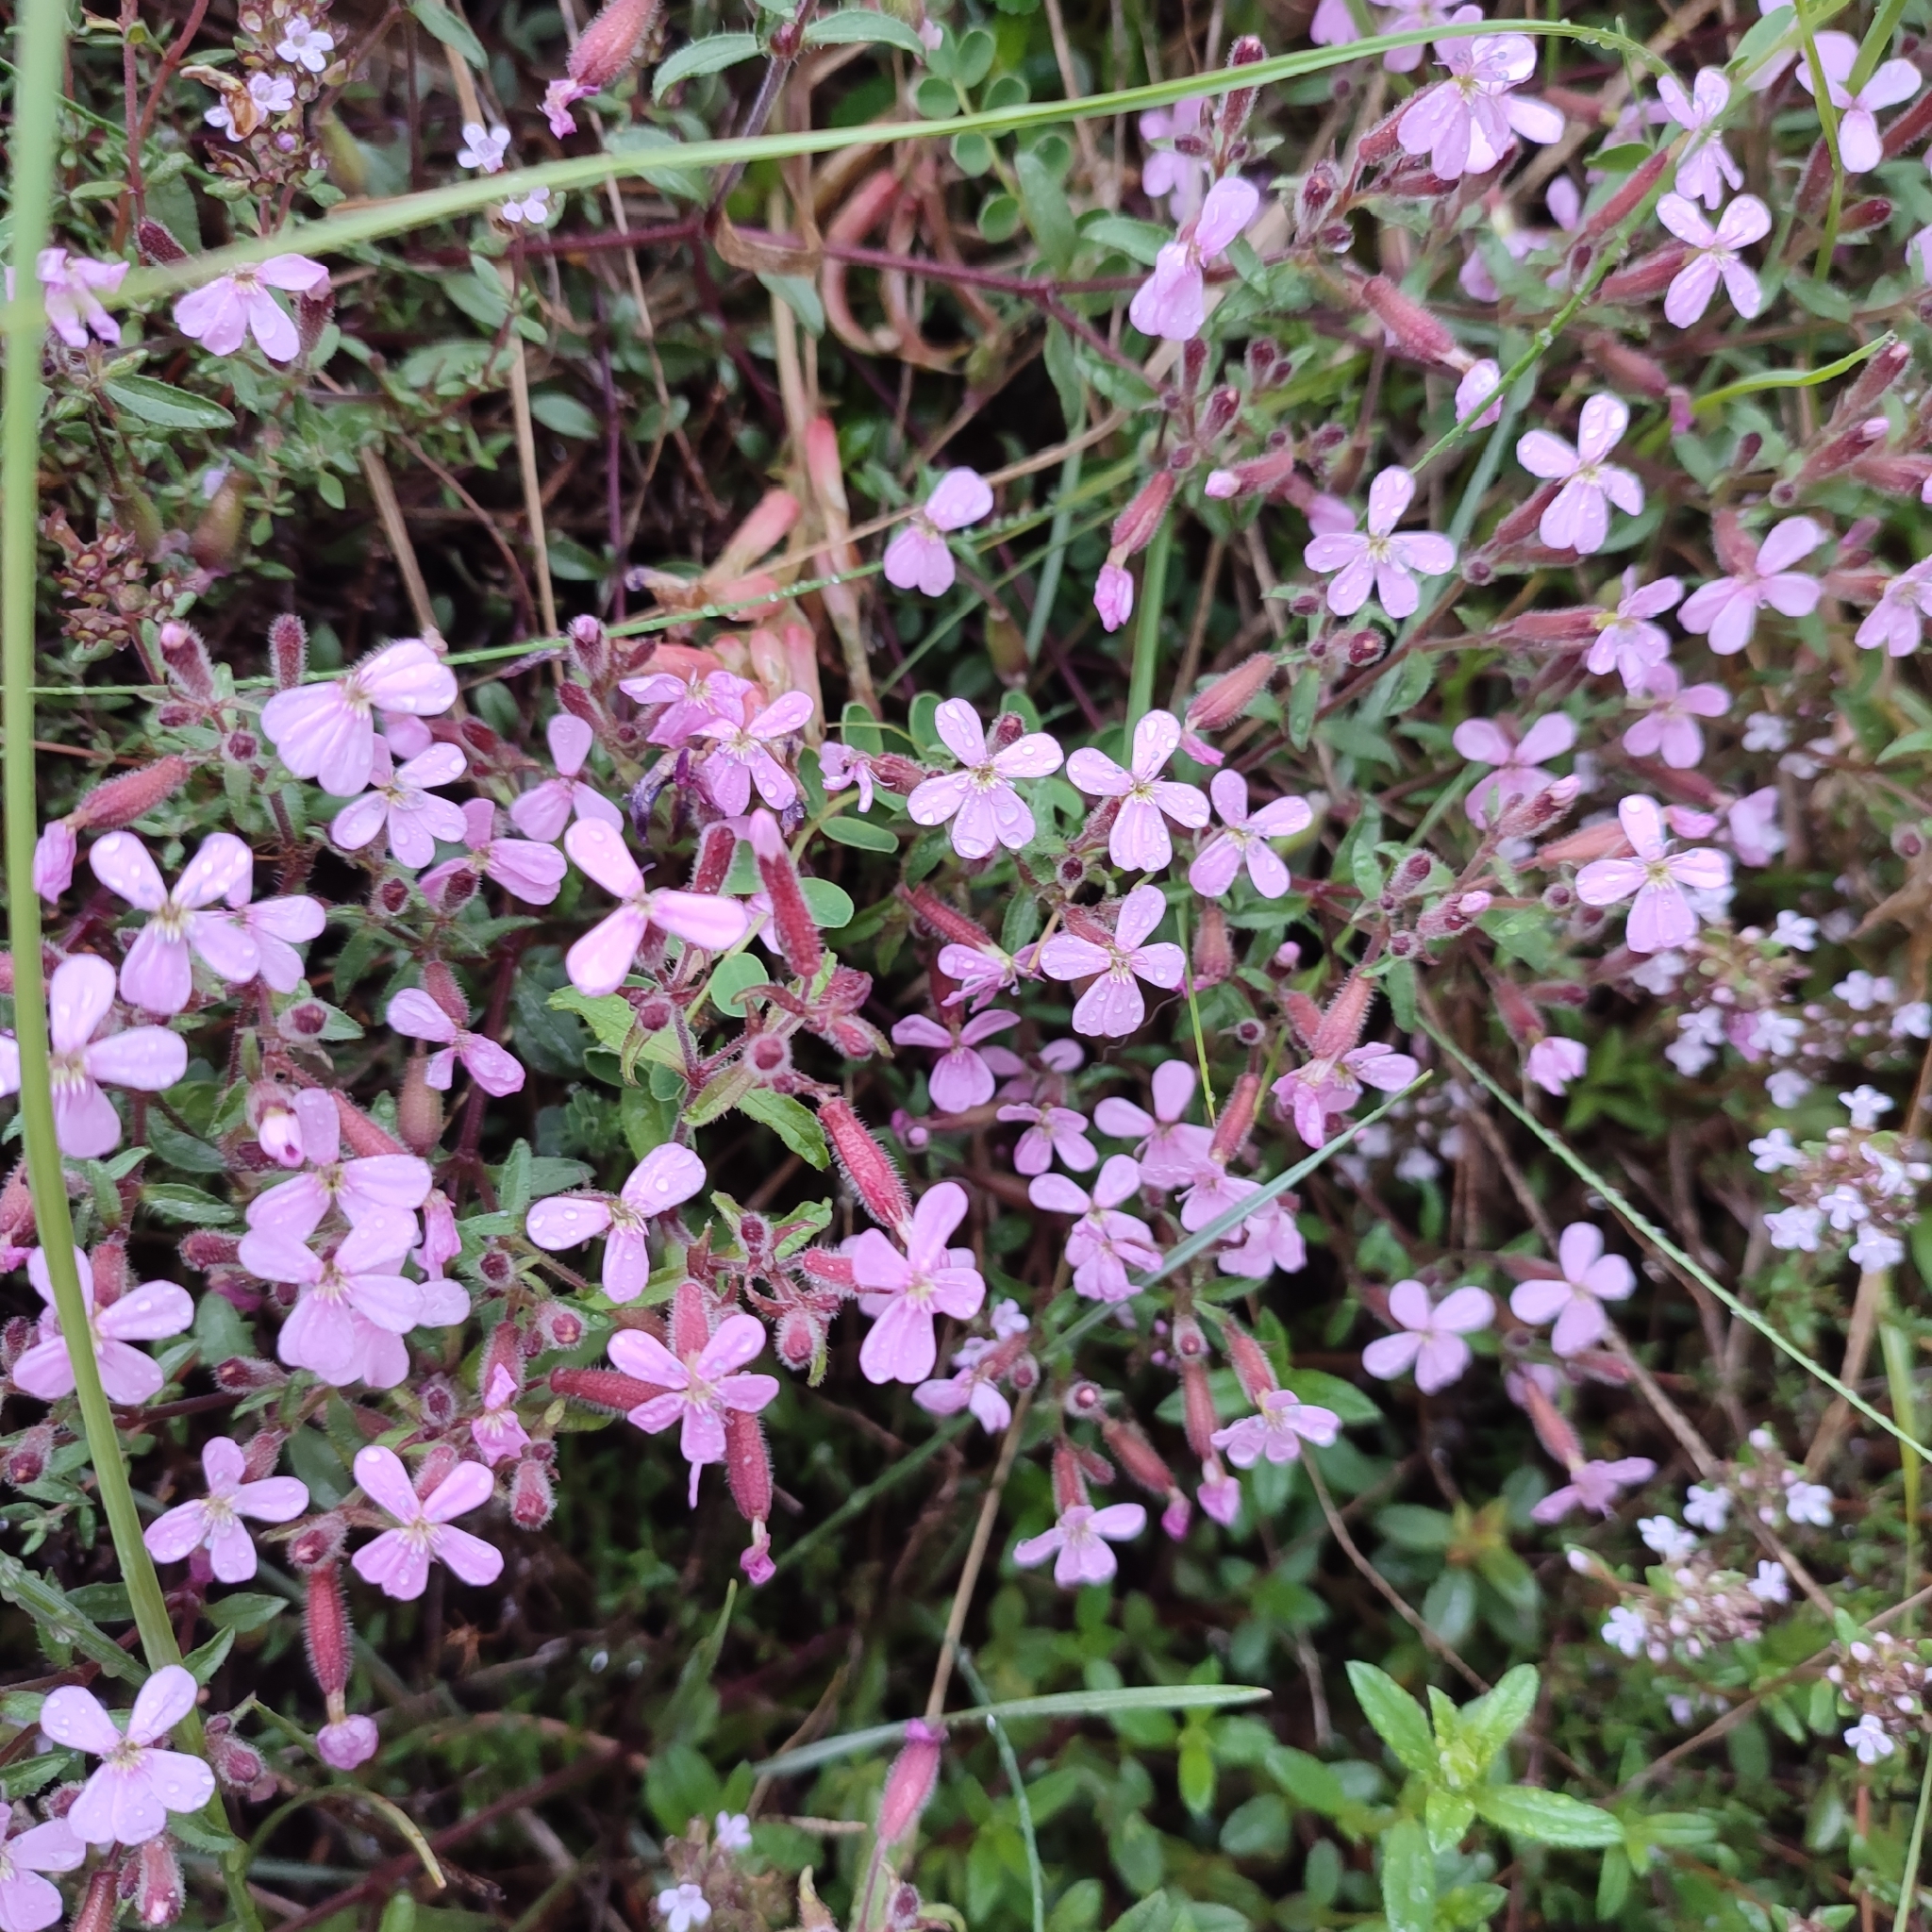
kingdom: Plantae
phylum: Tracheophyta
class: Magnoliopsida
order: Caryophyllales
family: Caryophyllaceae
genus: Saponaria
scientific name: Saponaria ocymoides
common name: Rock soapwort
